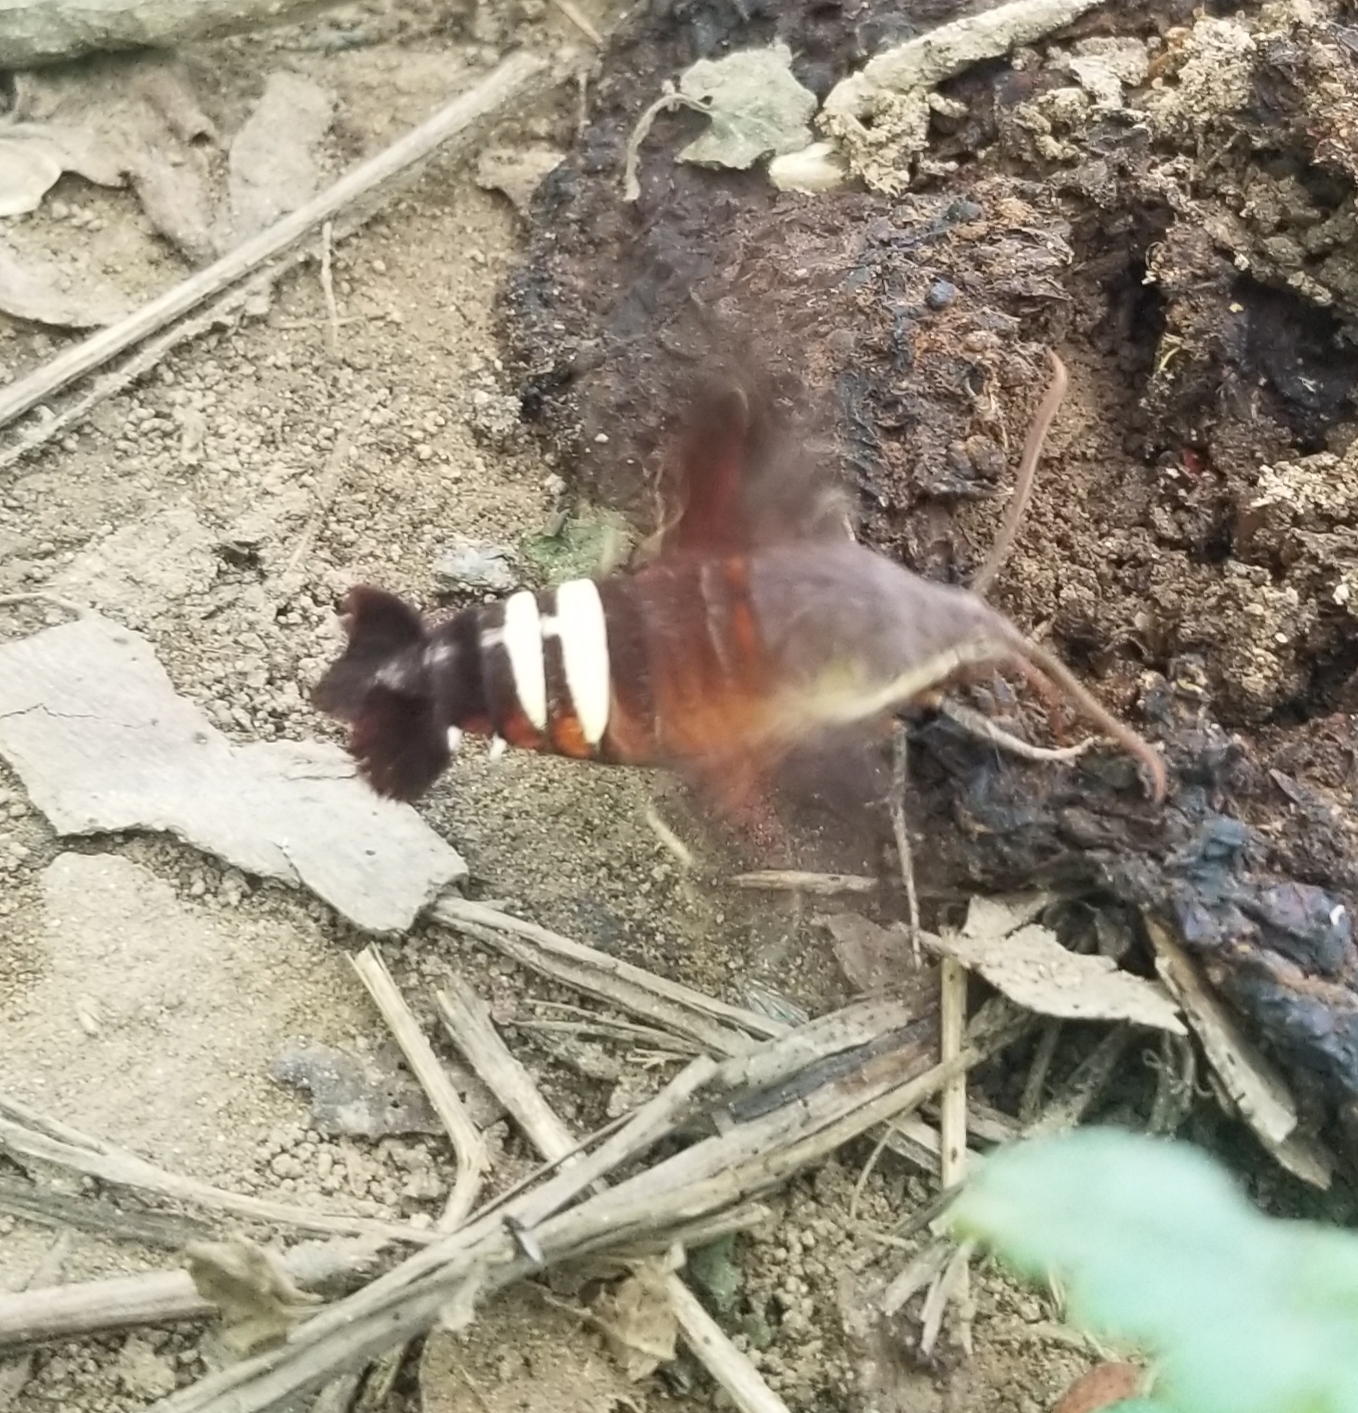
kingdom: Animalia
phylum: Arthropoda
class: Insecta
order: Lepidoptera
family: Sphingidae
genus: Amphion
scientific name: Amphion floridensis
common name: Nessus sphinx
